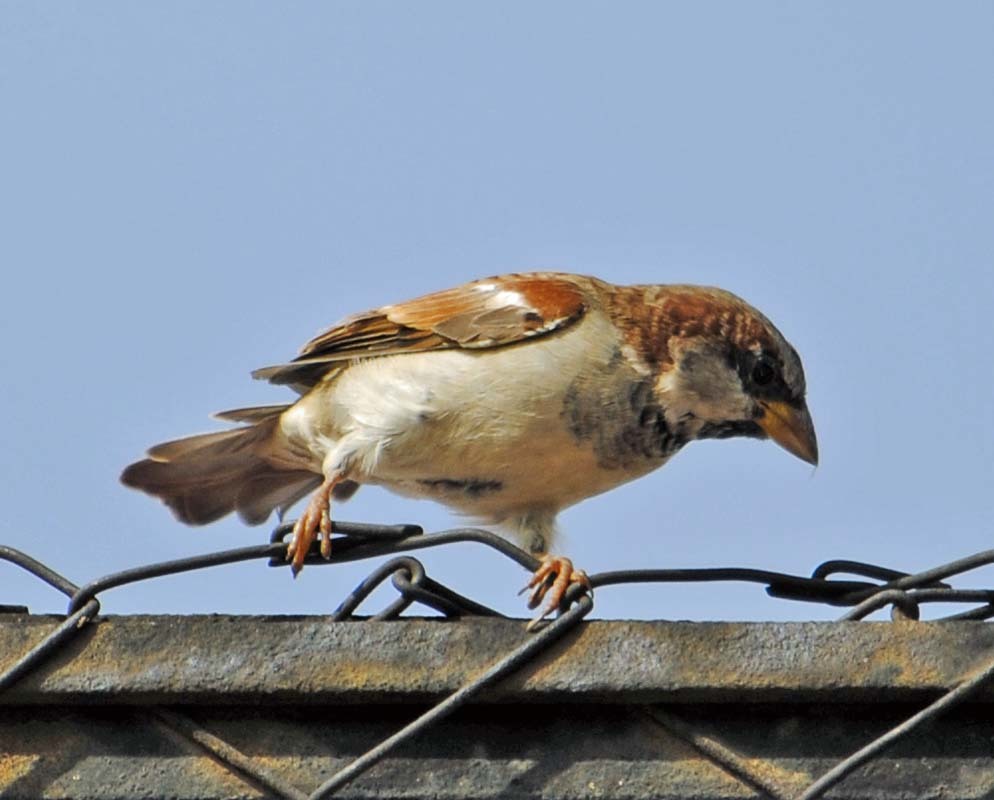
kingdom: Animalia
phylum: Chordata
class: Aves
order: Passeriformes
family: Passeridae
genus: Passer
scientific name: Passer domesticus
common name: House sparrow
